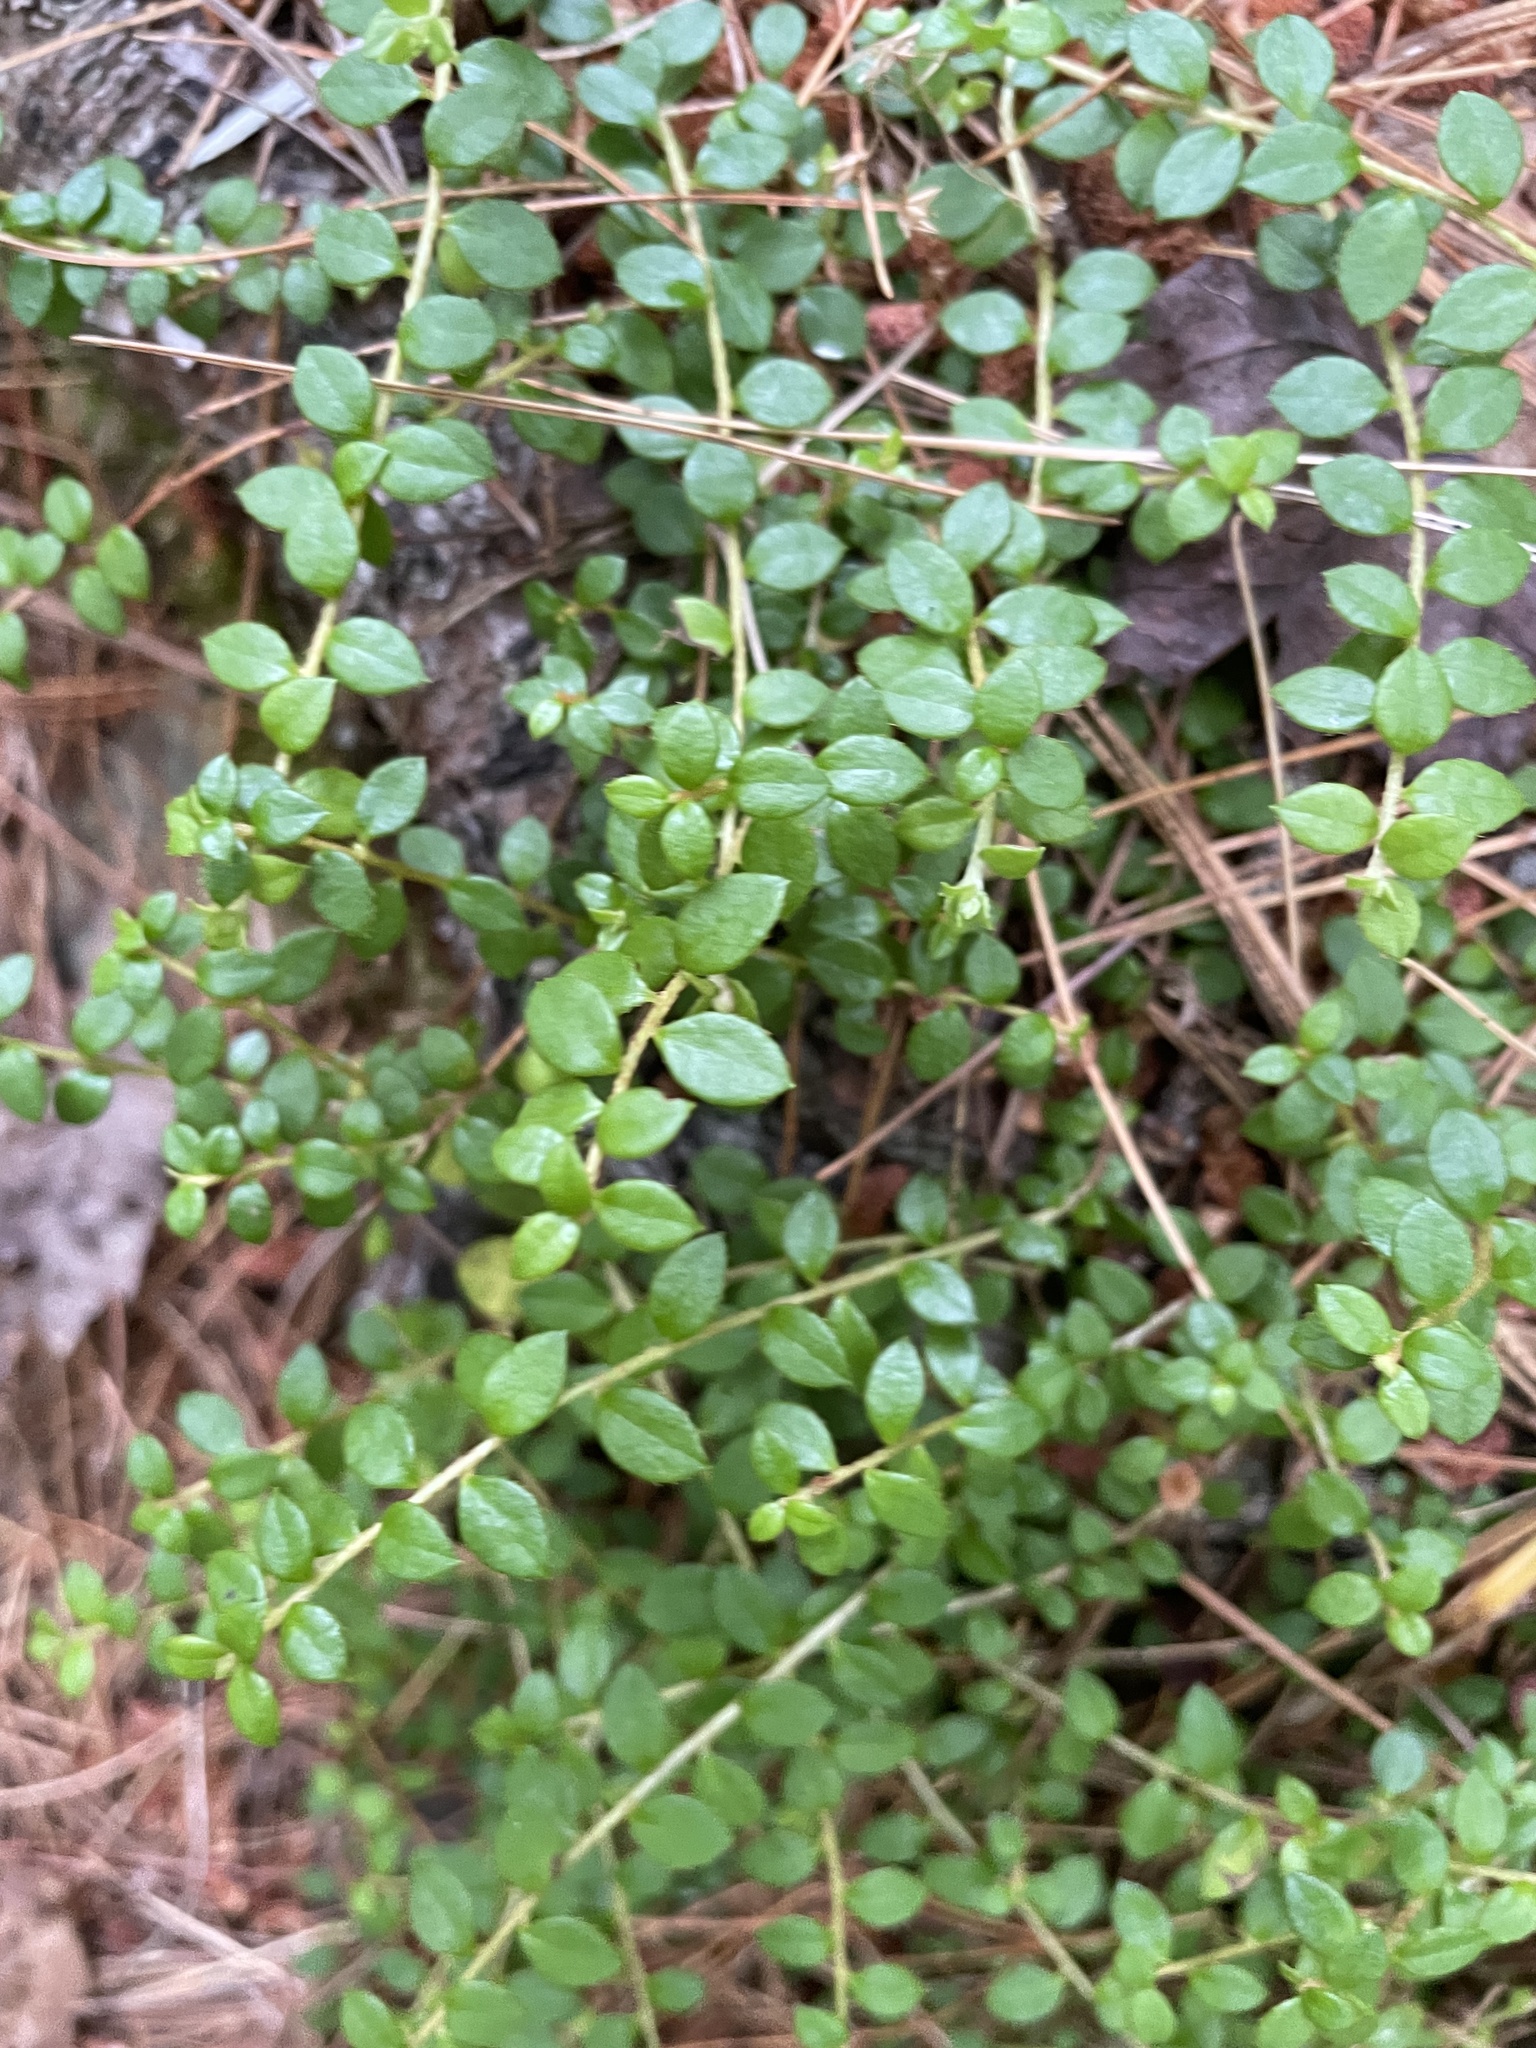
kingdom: Plantae
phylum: Tracheophyta
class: Magnoliopsida
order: Ericales
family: Ericaceae
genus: Gaultheria
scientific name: Gaultheria hispidula
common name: Cancer wintergreen
